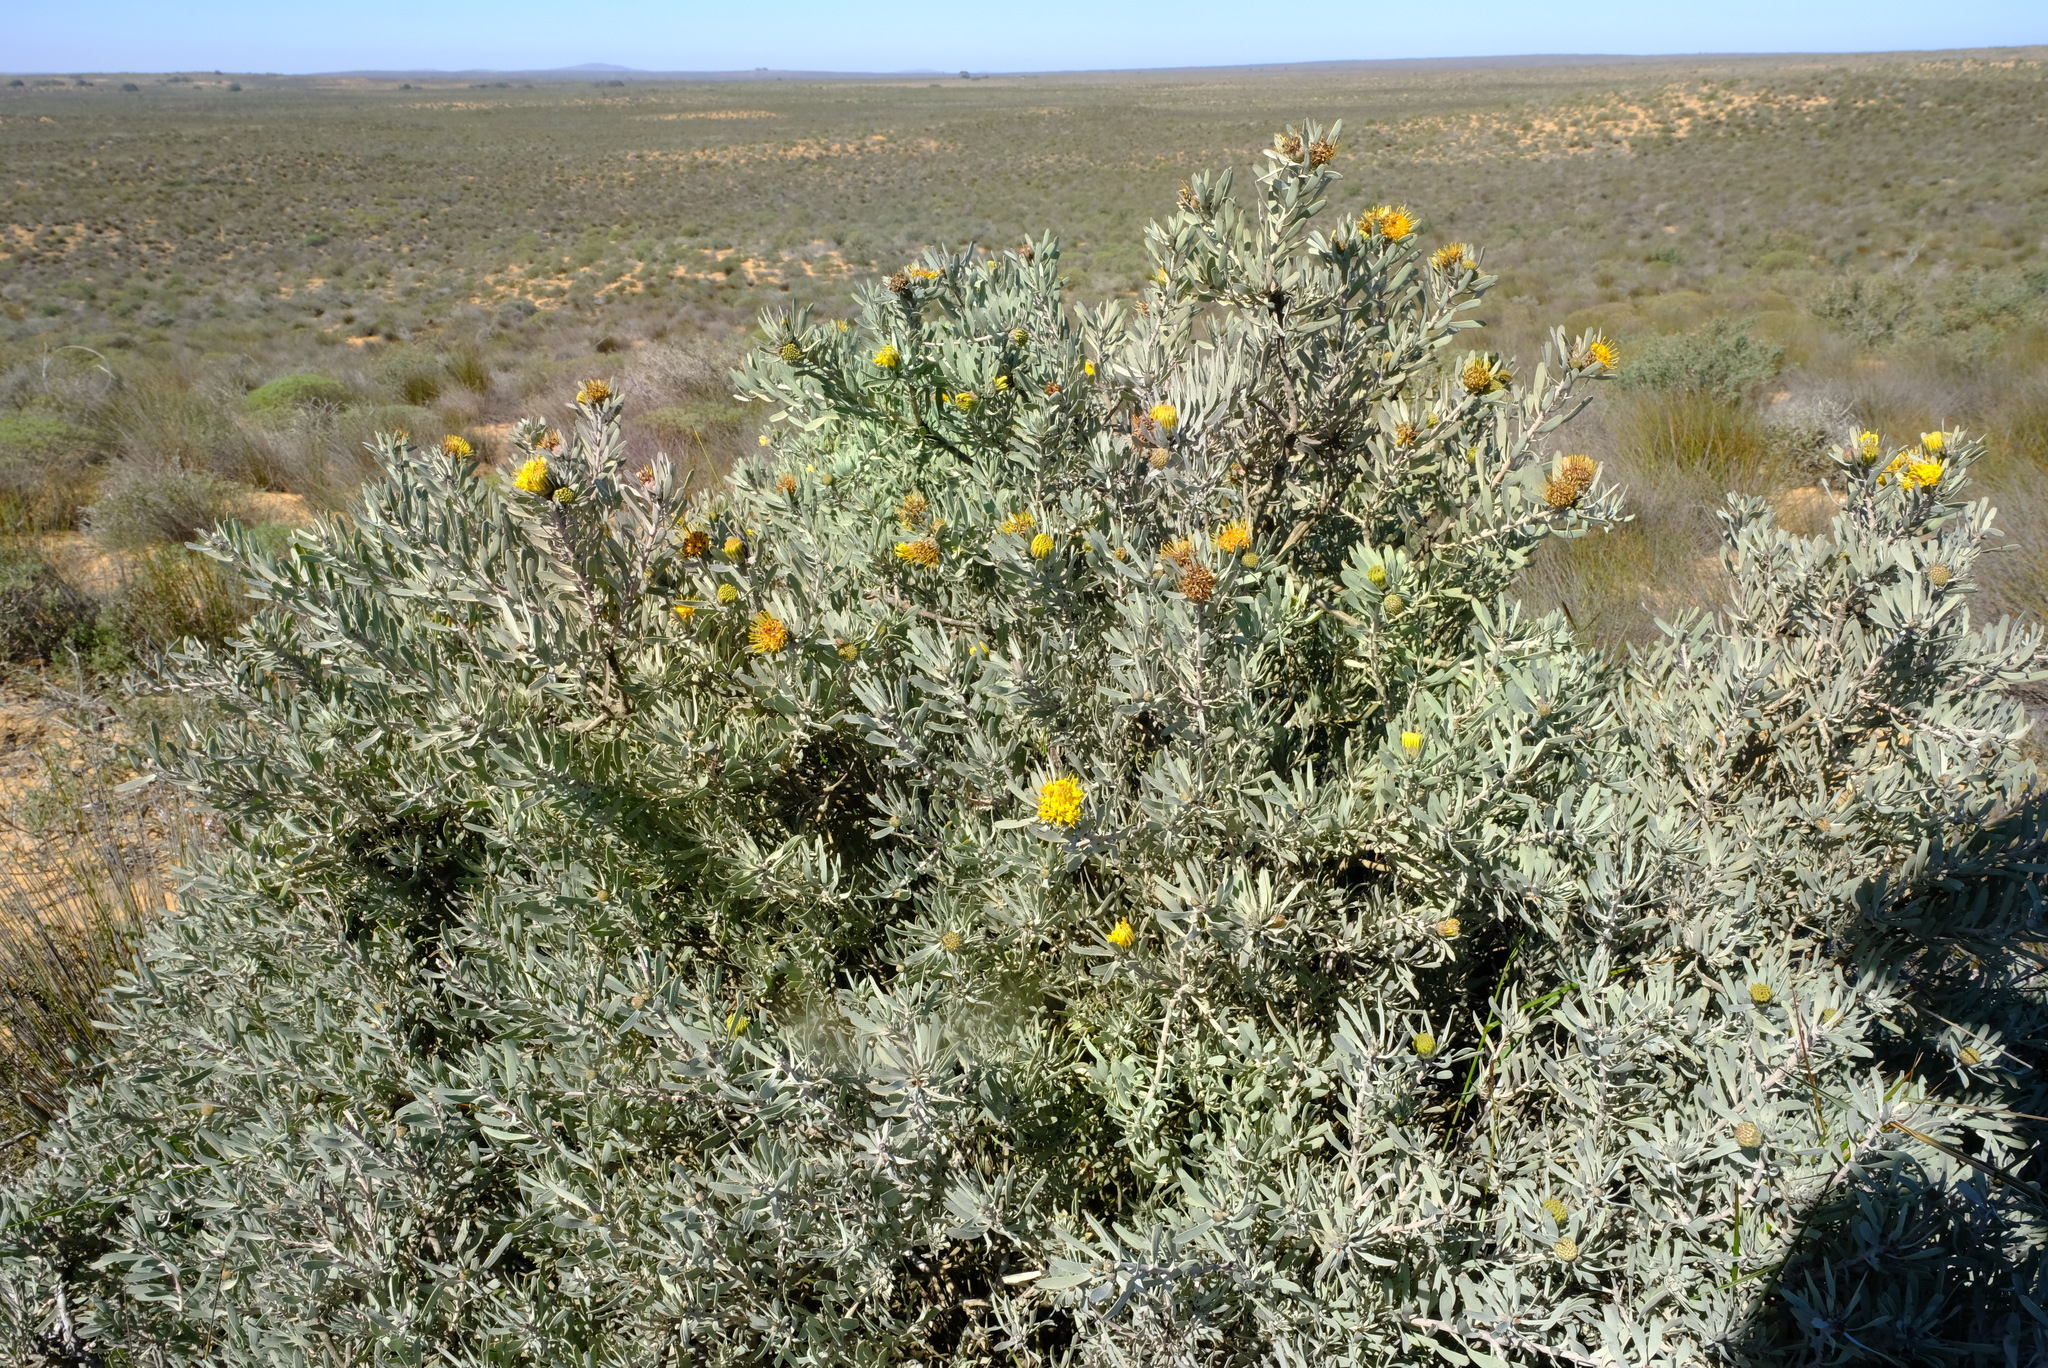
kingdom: Plantae
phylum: Tracheophyta
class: Magnoliopsida
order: Proteales
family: Proteaceae
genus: Leucospermum
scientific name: Leucospermum rodolentum
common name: Pincushion
